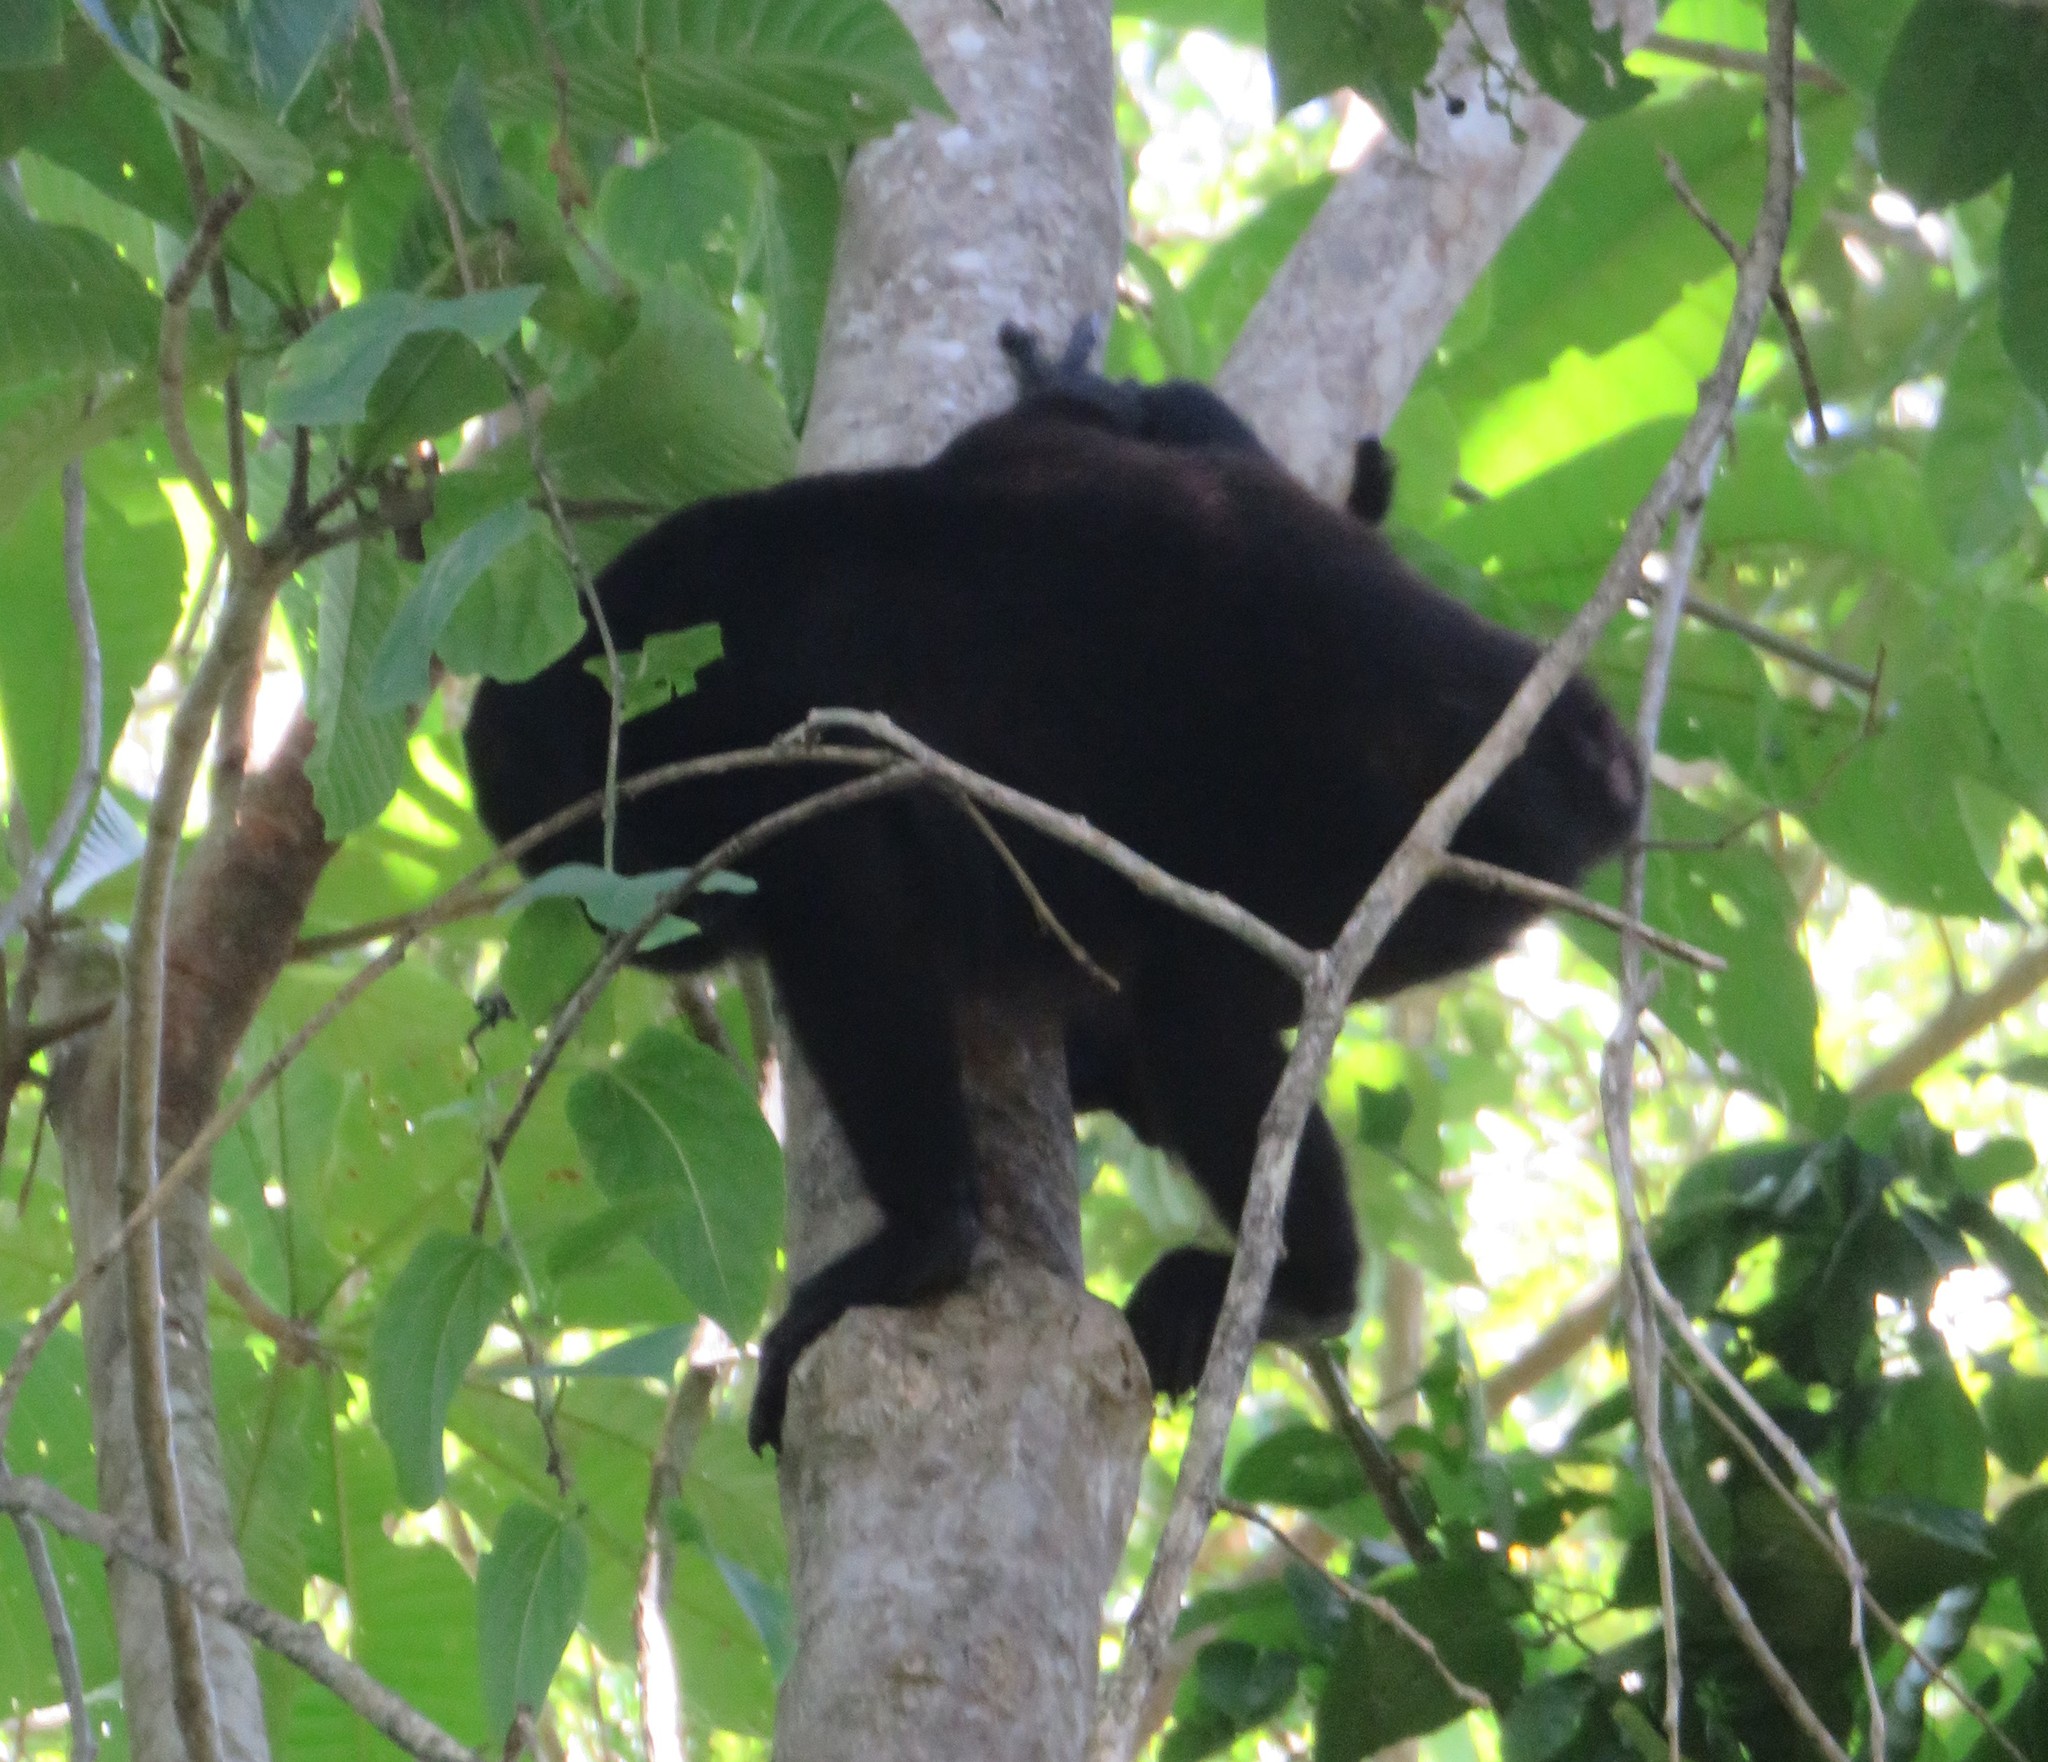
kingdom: Animalia
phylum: Chordata
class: Mammalia
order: Primates
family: Atelidae
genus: Alouatta
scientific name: Alouatta palliata
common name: Mantled howler
